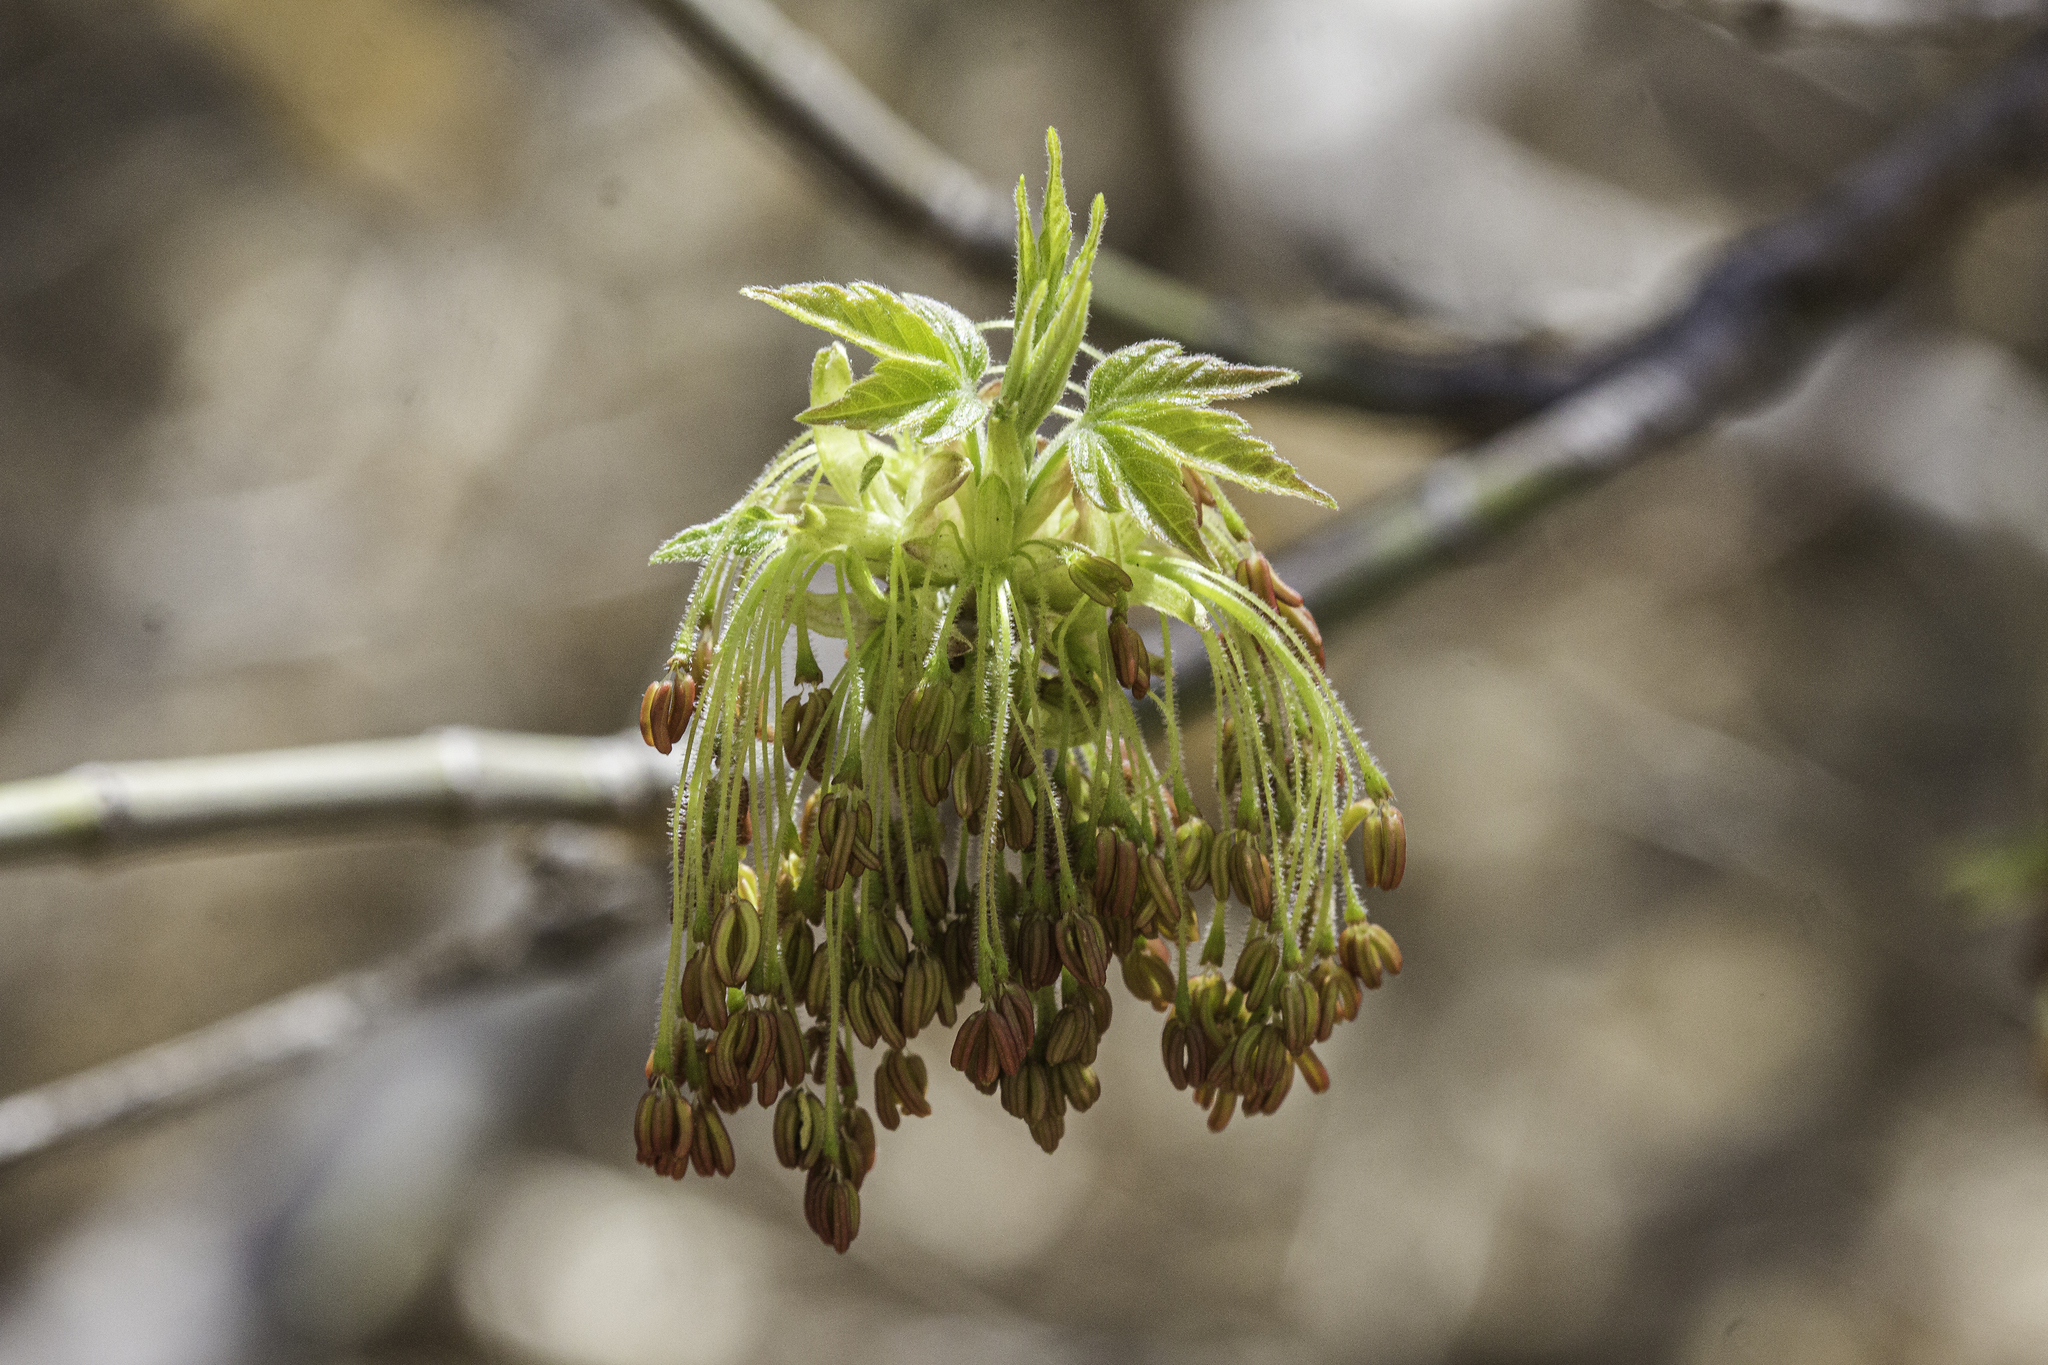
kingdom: Plantae
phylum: Tracheophyta
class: Magnoliopsida
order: Sapindales
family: Sapindaceae
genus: Acer
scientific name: Acer negundo
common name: Ashleaf maple
